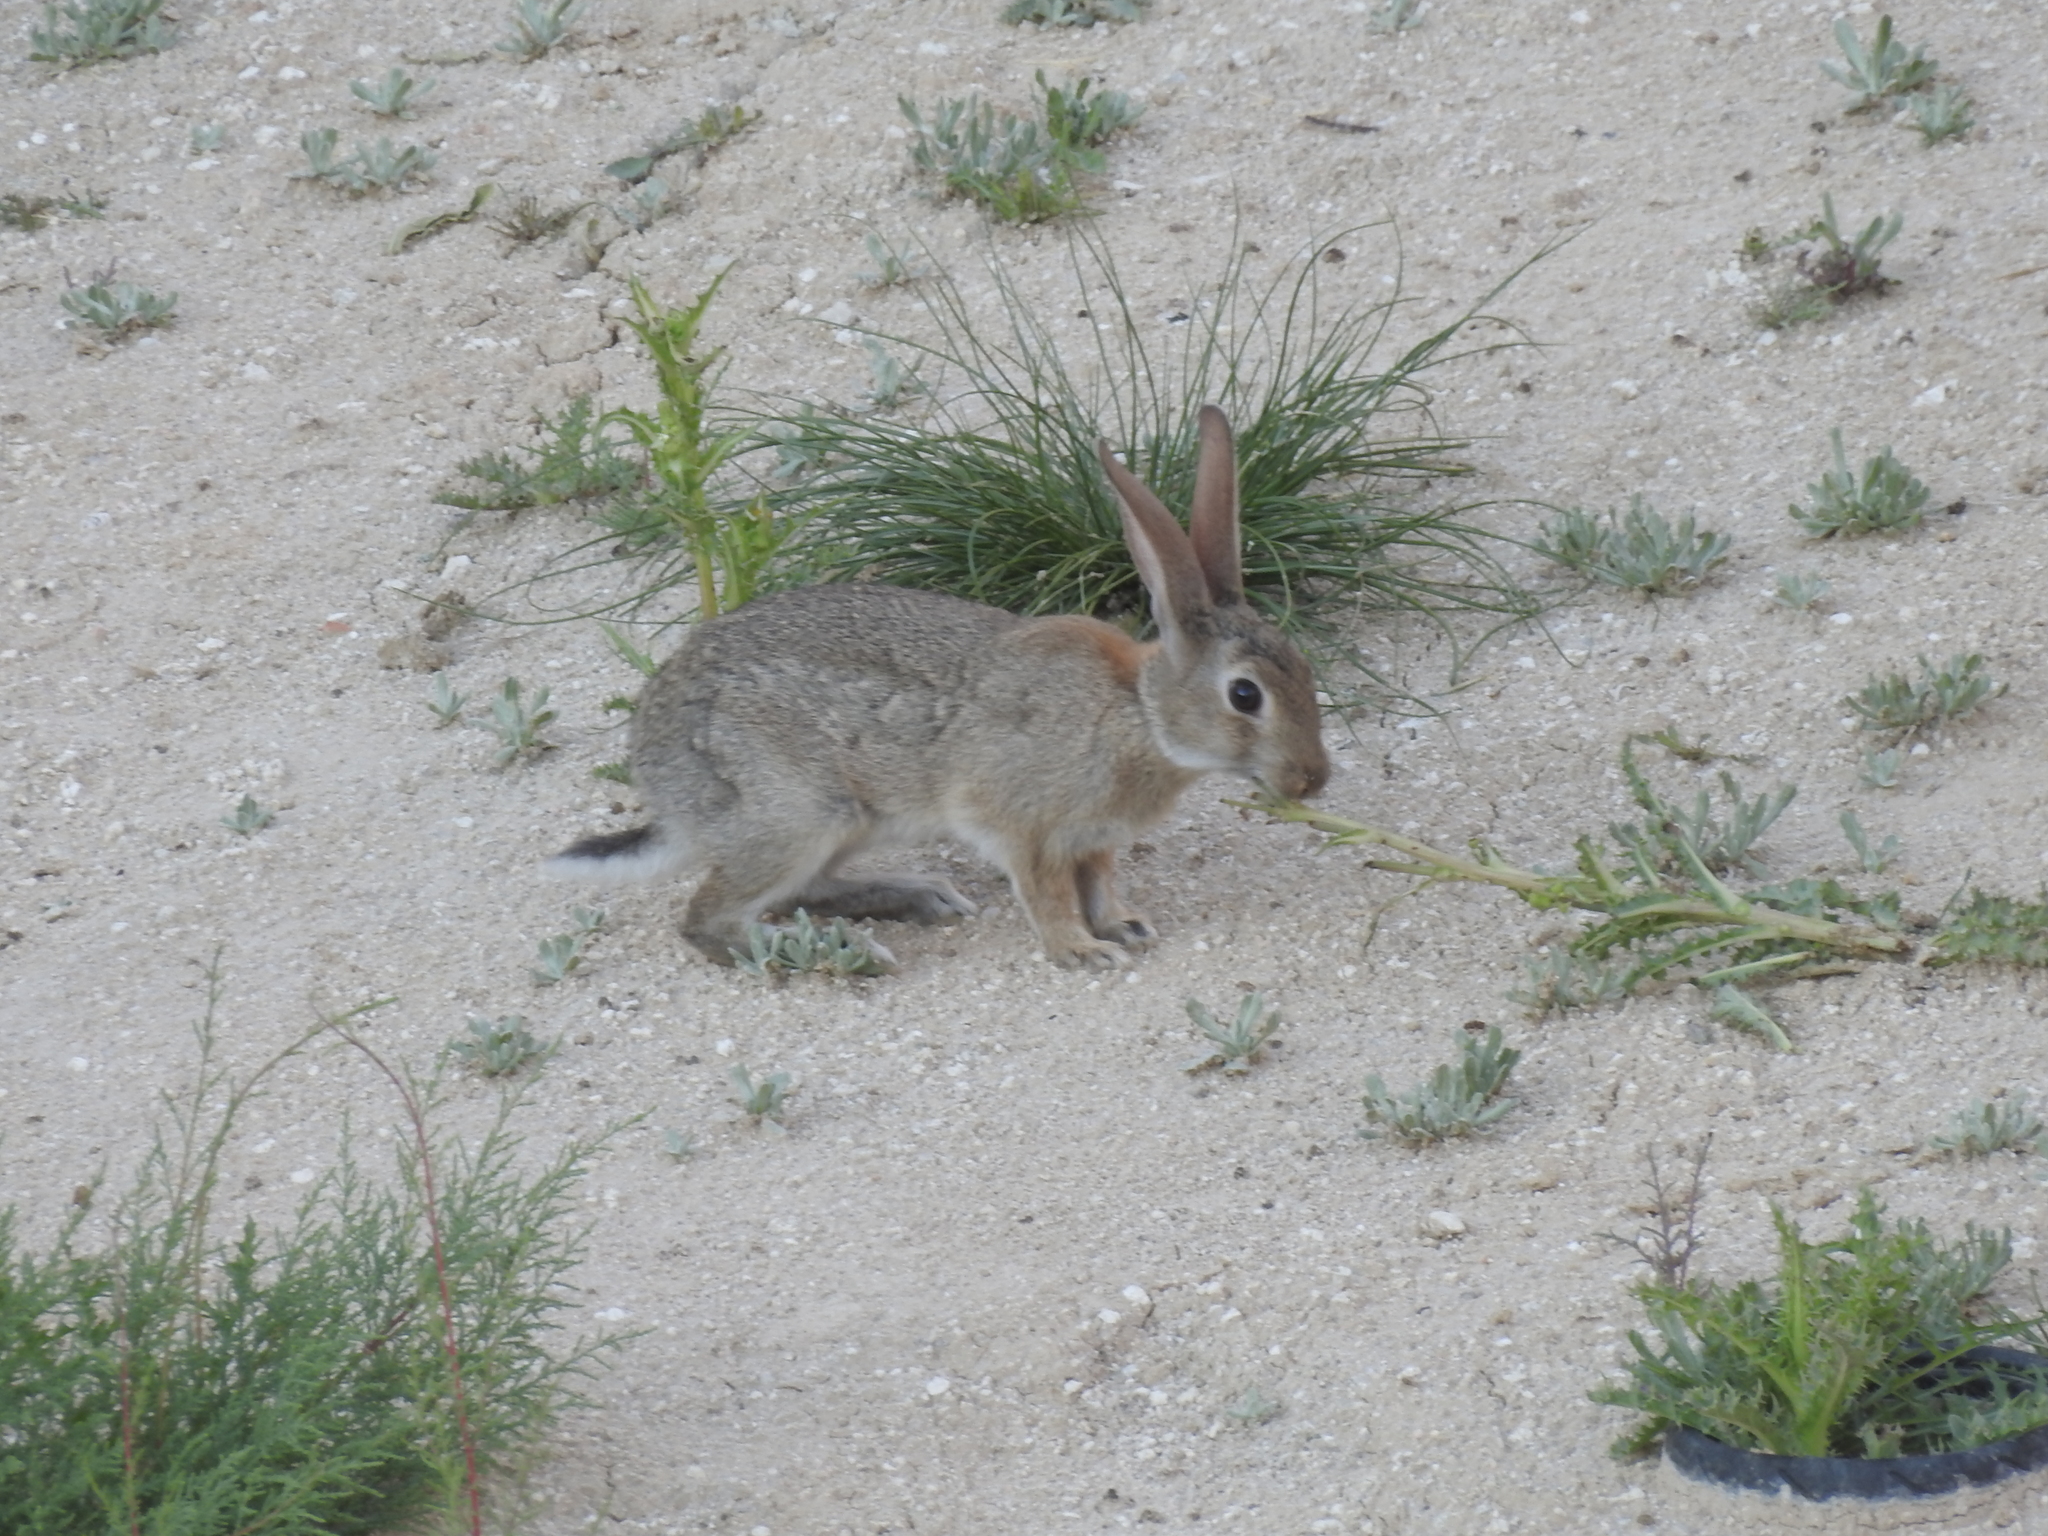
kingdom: Animalia
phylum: Chordata
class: Mammalia
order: Lagomorpha
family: Leporidae
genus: Oryctolagus
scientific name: Oryctolagus cuniculus
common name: European rabbit
